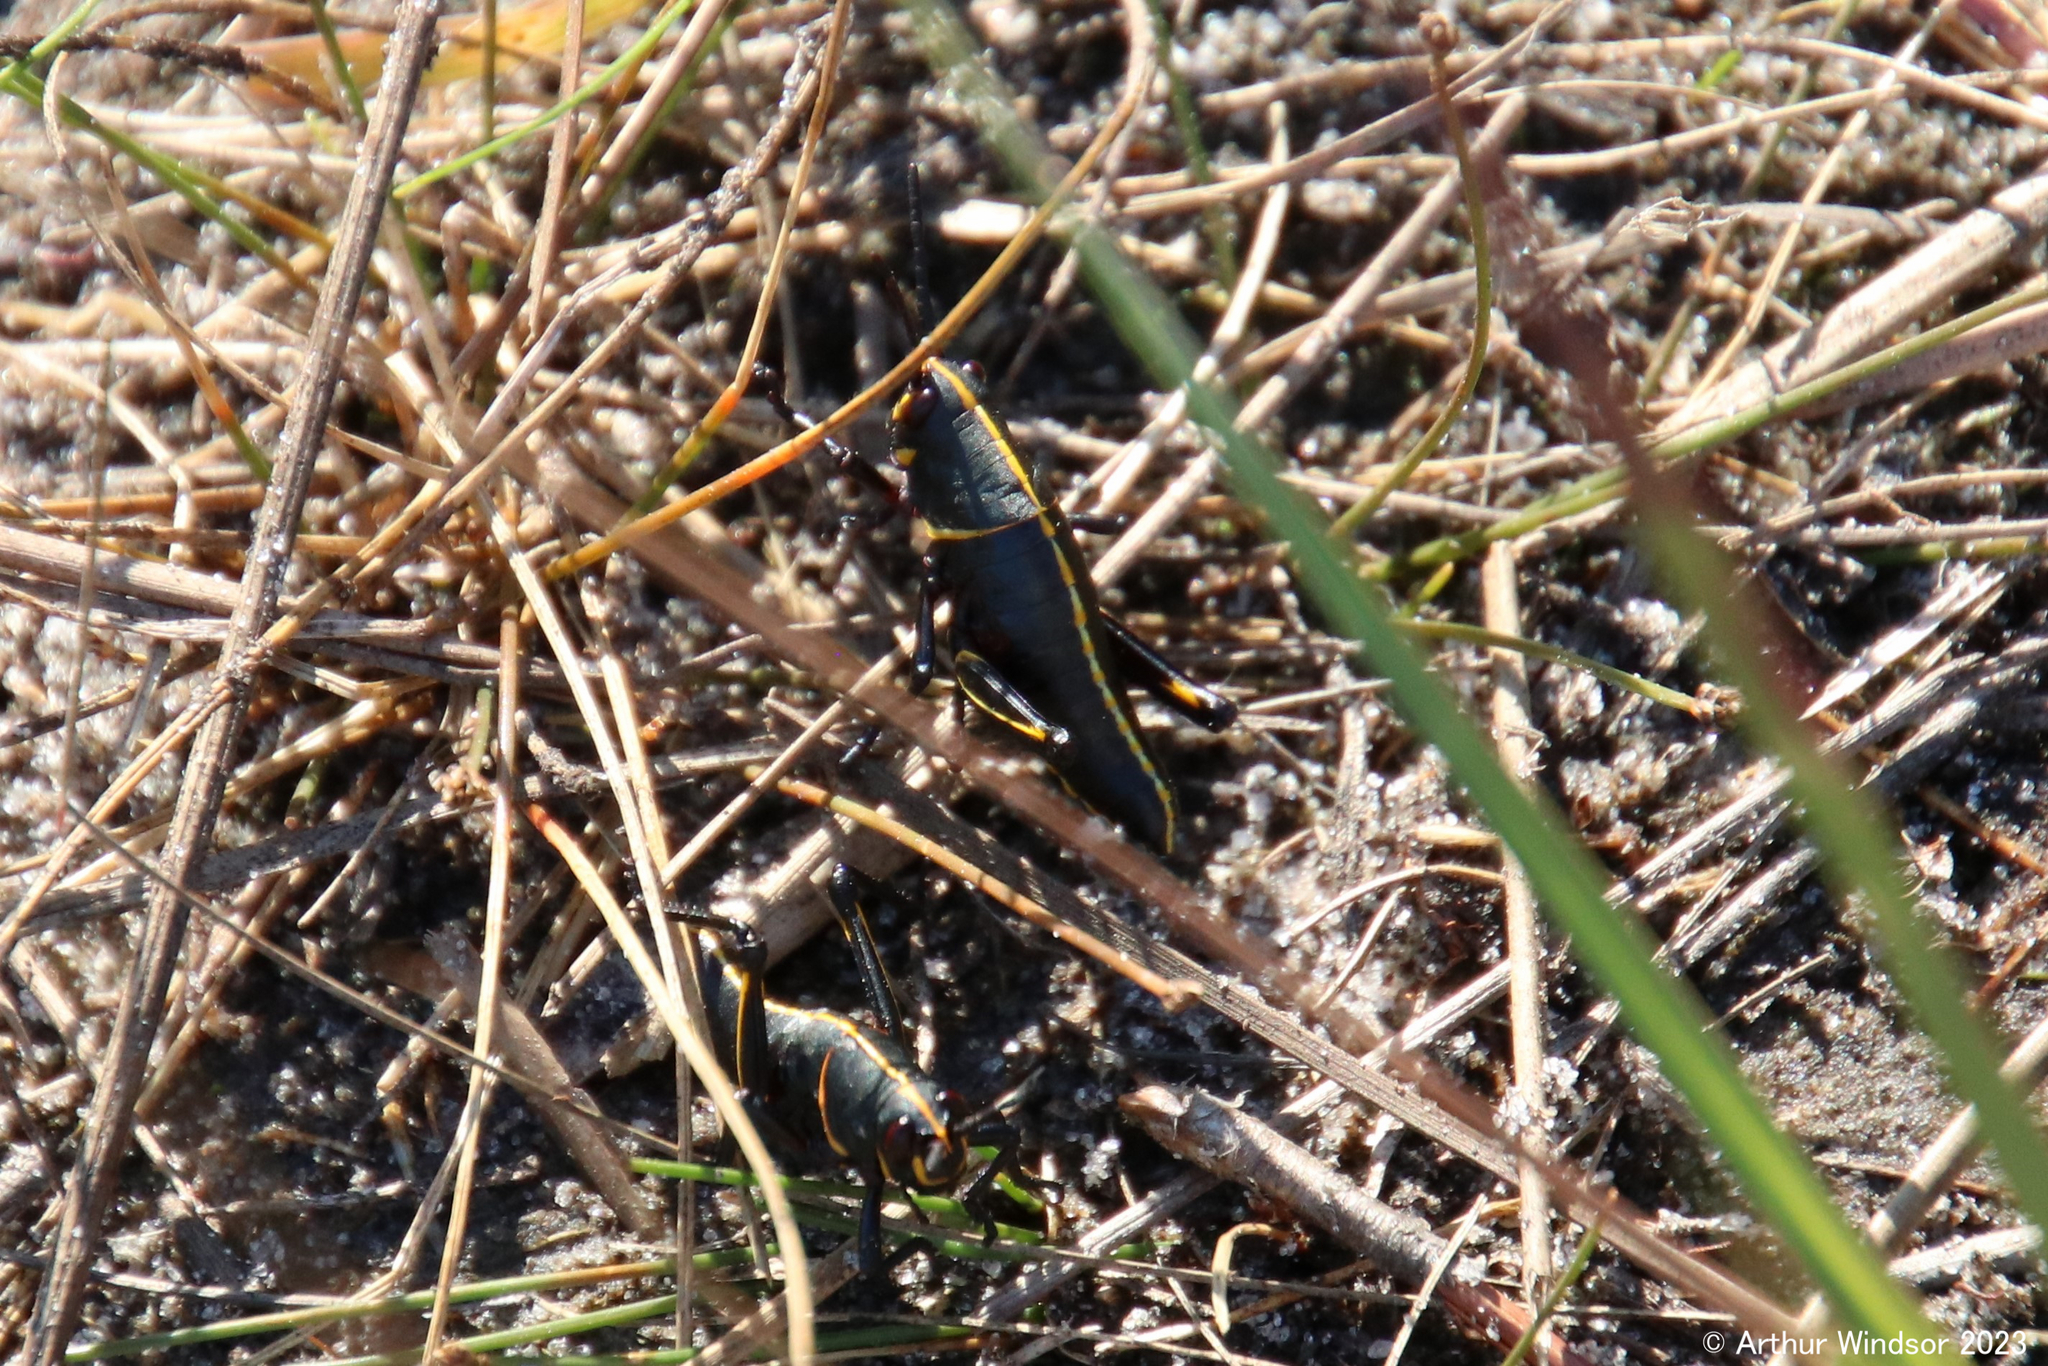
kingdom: Animalia
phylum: Arthropoda
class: Insecta
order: Orthoptera
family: Romaleidae
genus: Romalea
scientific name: Romalea microptera
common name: Eastern lubber grasshopper
